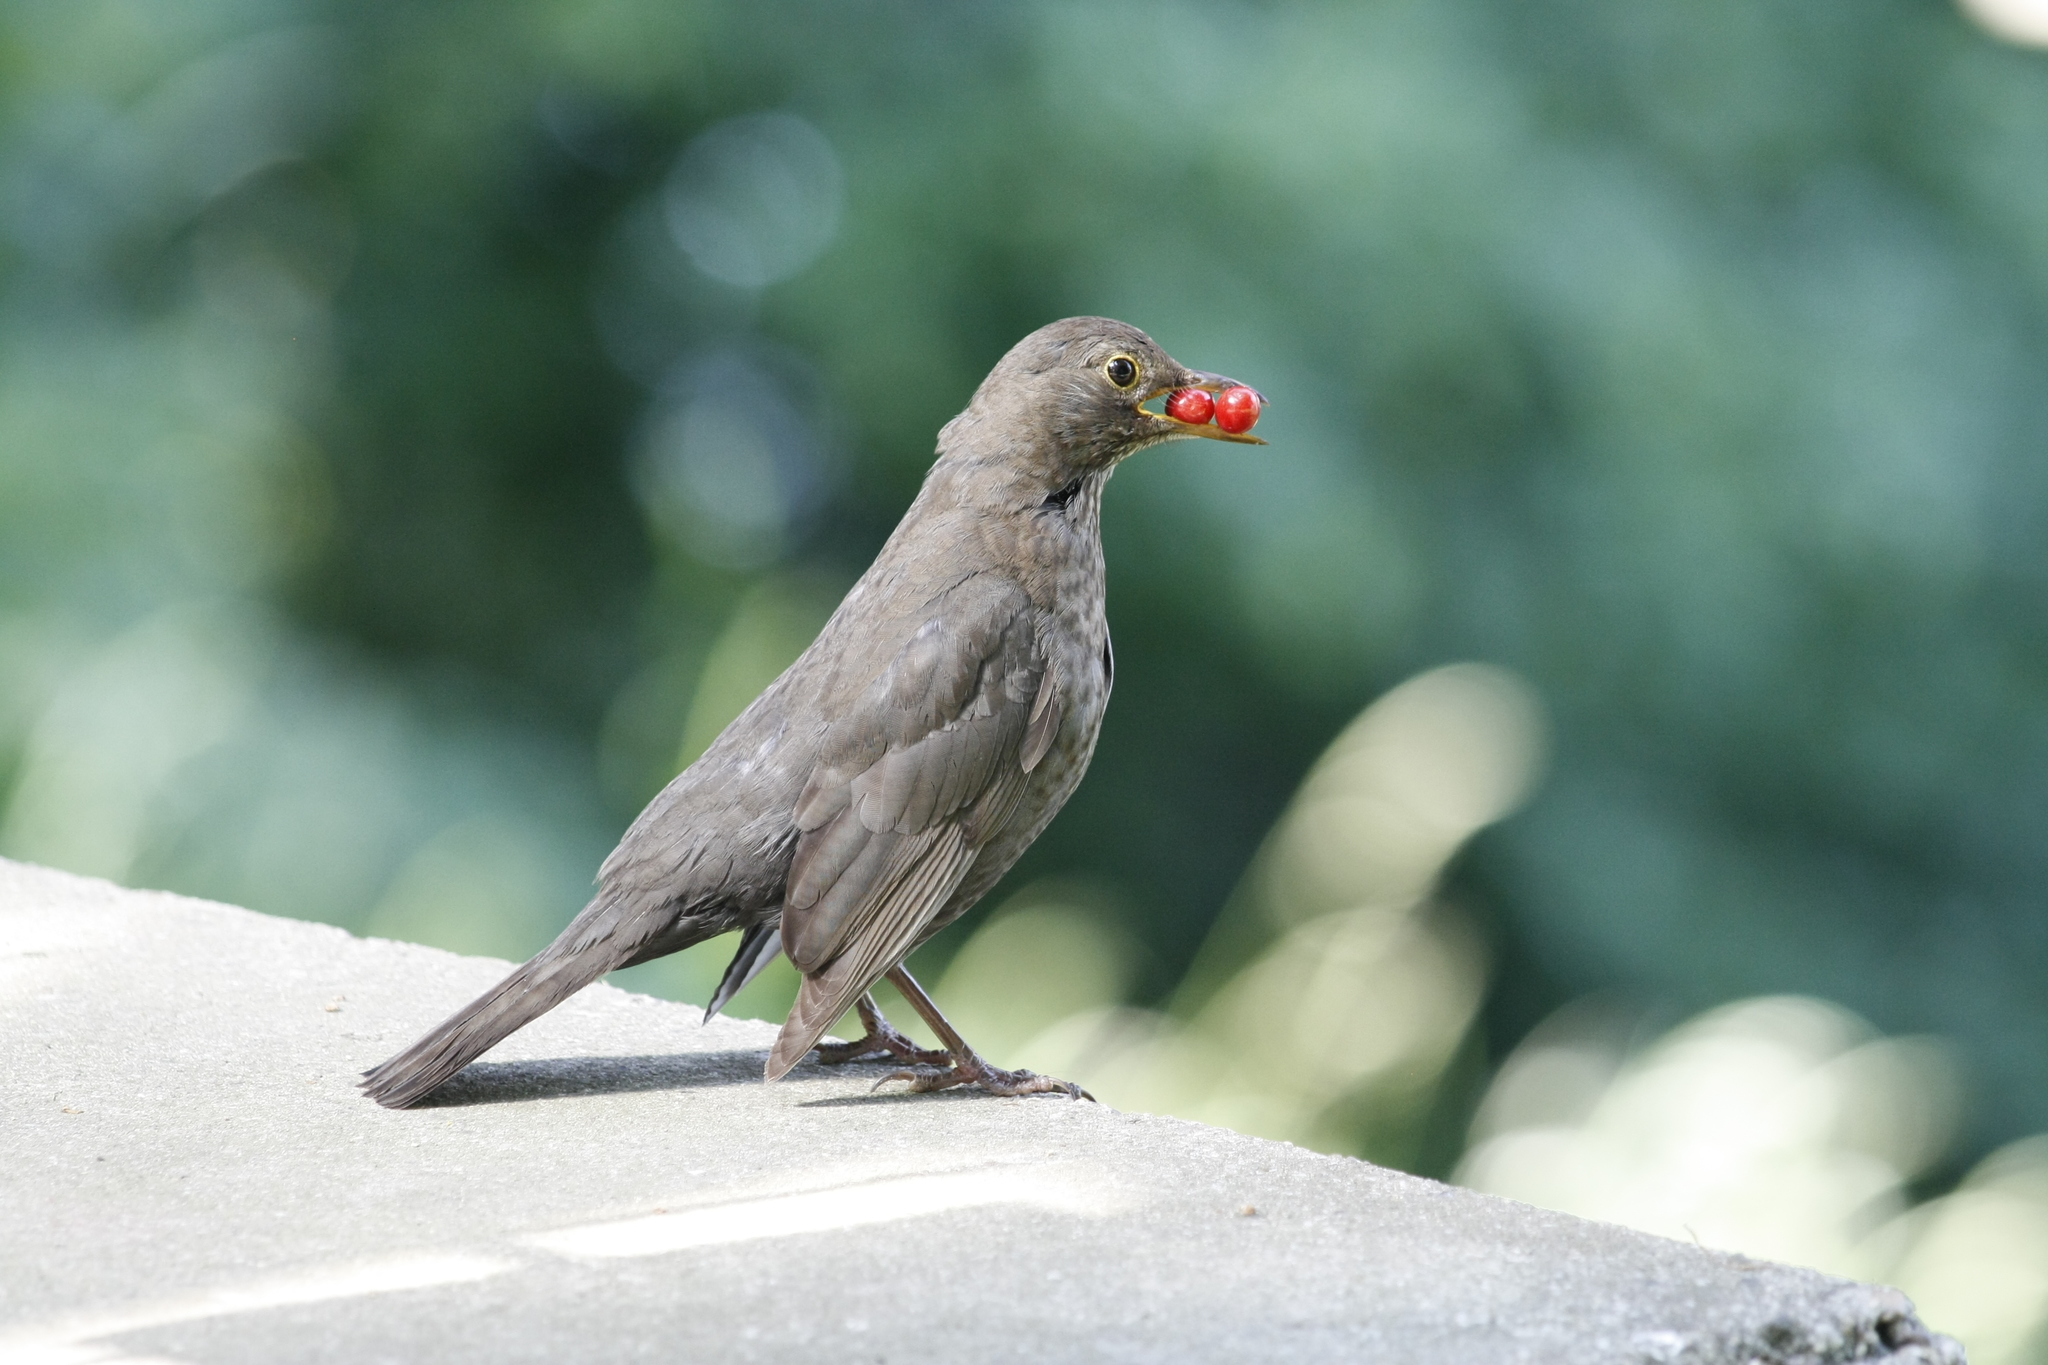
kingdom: Animalia
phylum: Chordata
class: Aves
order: Passeriformes
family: Turdidae
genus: Turdus
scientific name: Turdus merula
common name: Common blackbird
